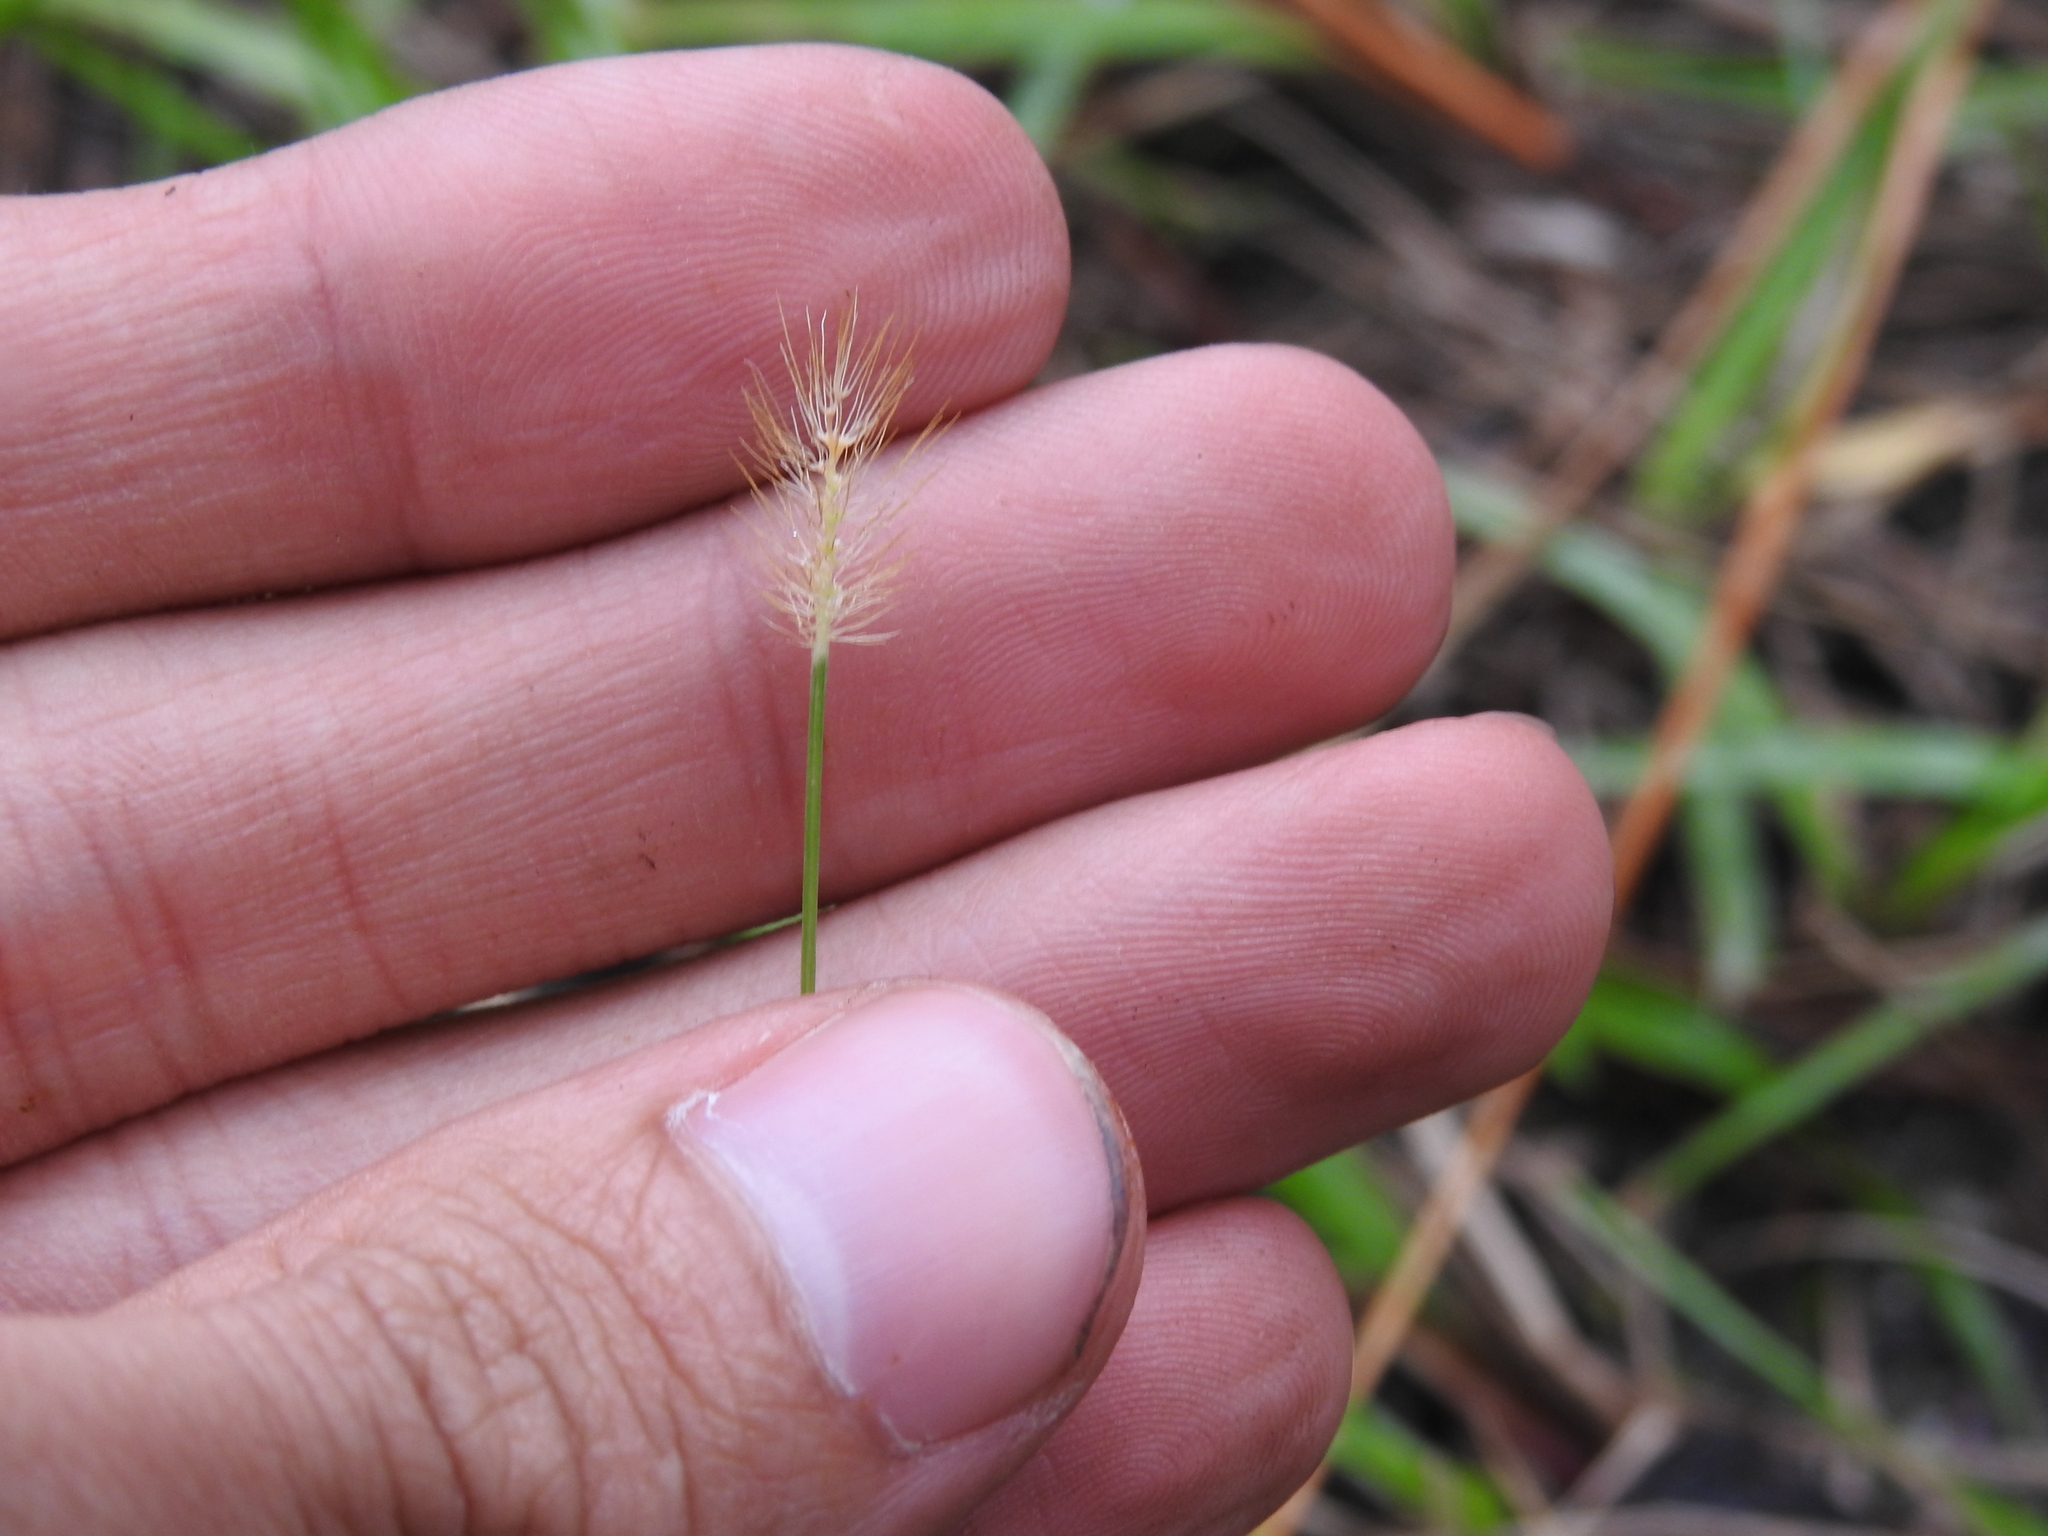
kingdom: Plantae
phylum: Tracheophyta
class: Liliopsida
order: Poales
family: Poaceae
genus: Setaria
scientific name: Setaria parviflora
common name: Knotroot bristle-grass
